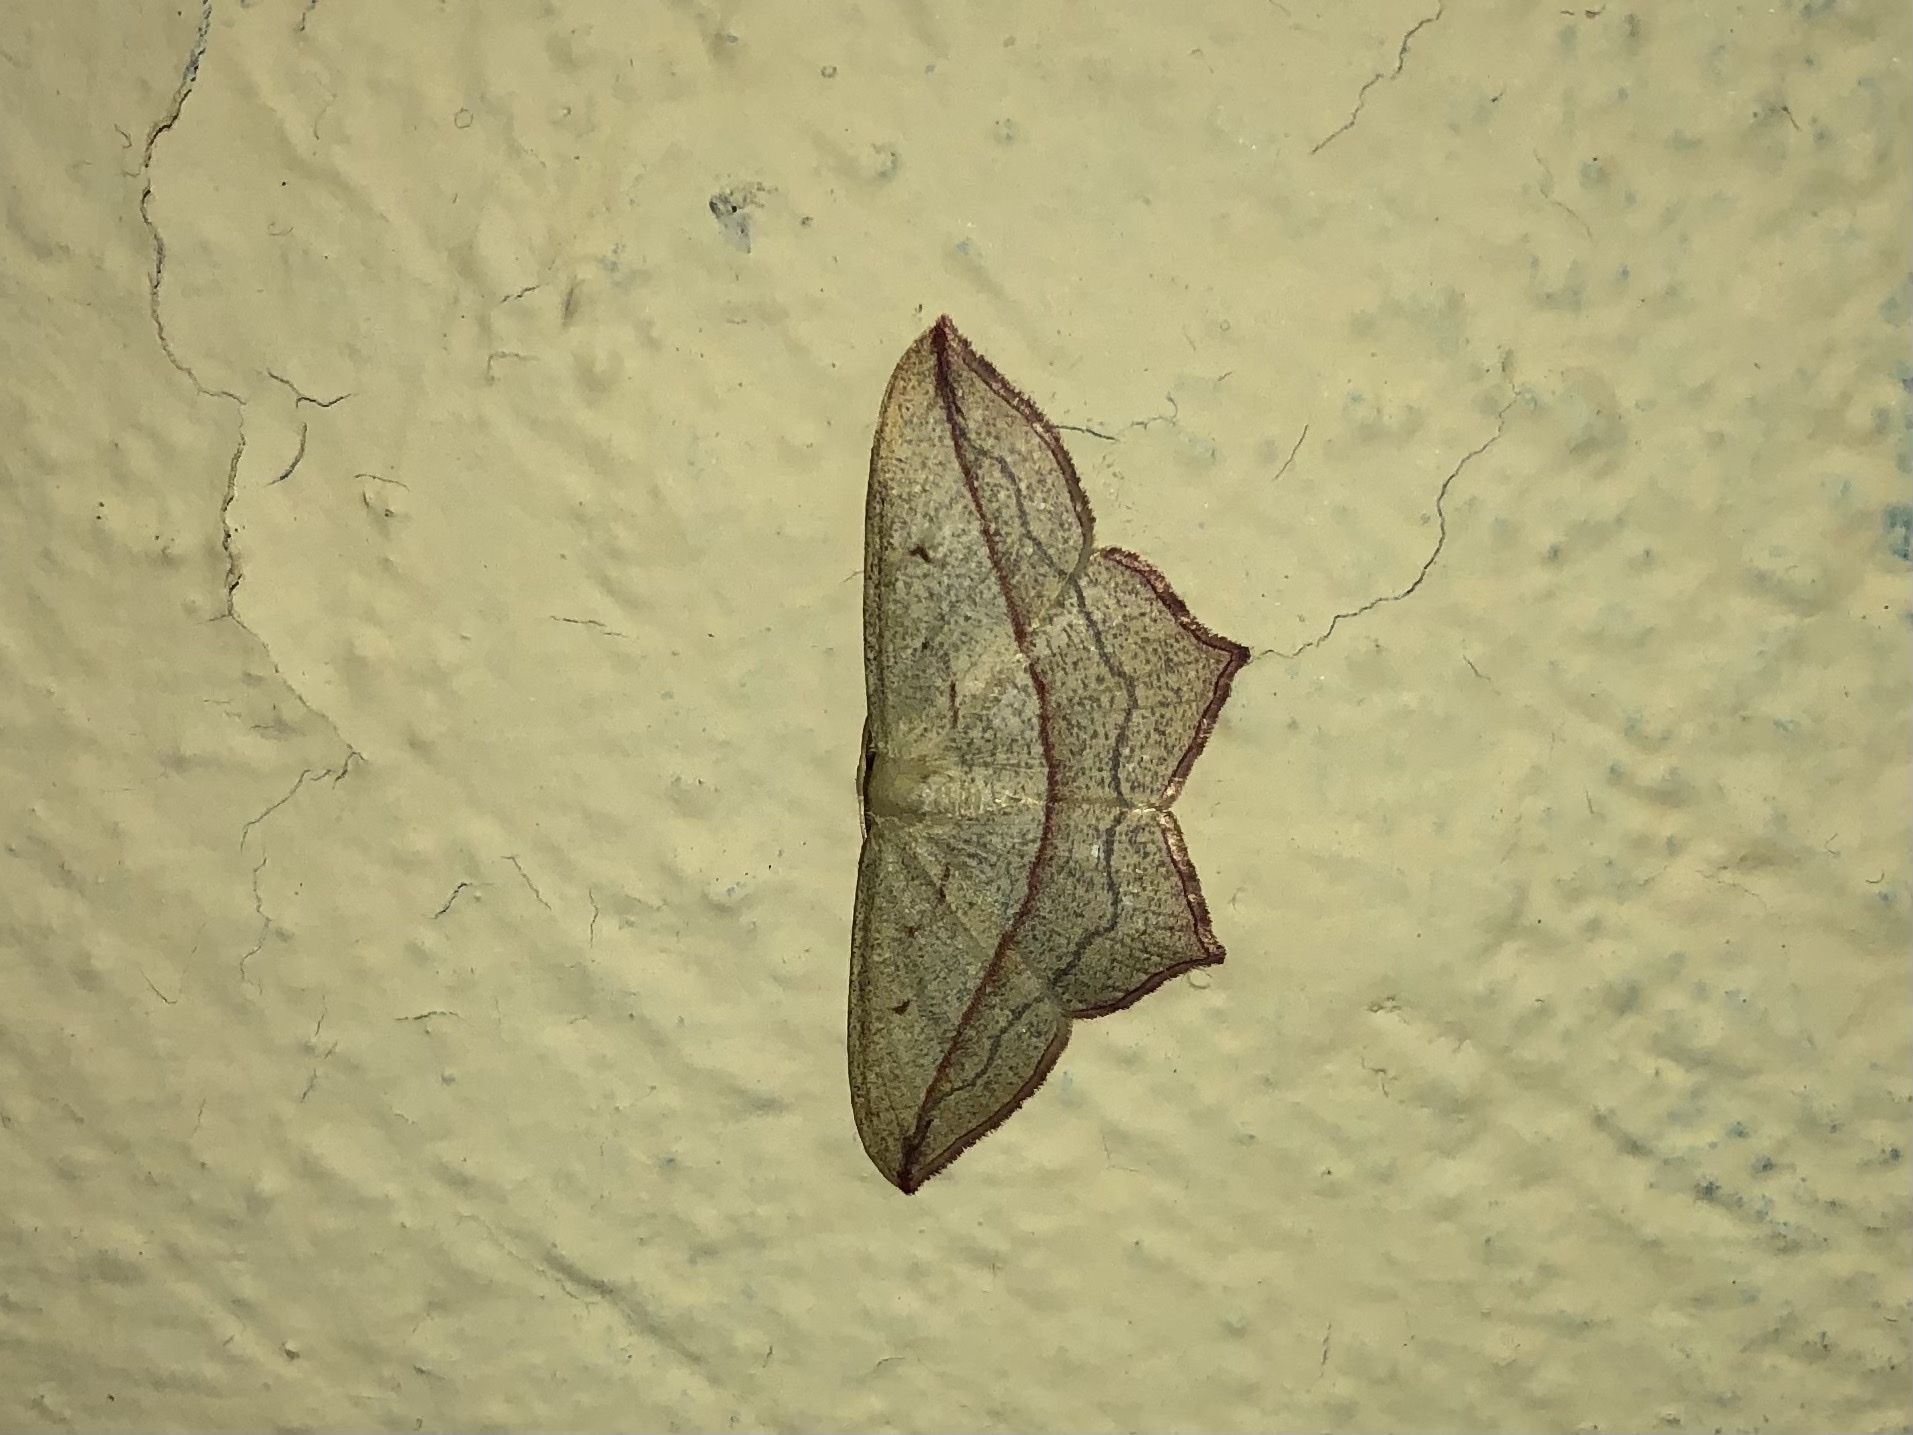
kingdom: Animalia
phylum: Arthropoda
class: Insecta
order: Lepidoptera
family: Geometridae
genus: Timandra
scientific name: Timandra comae
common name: Blood-vein
